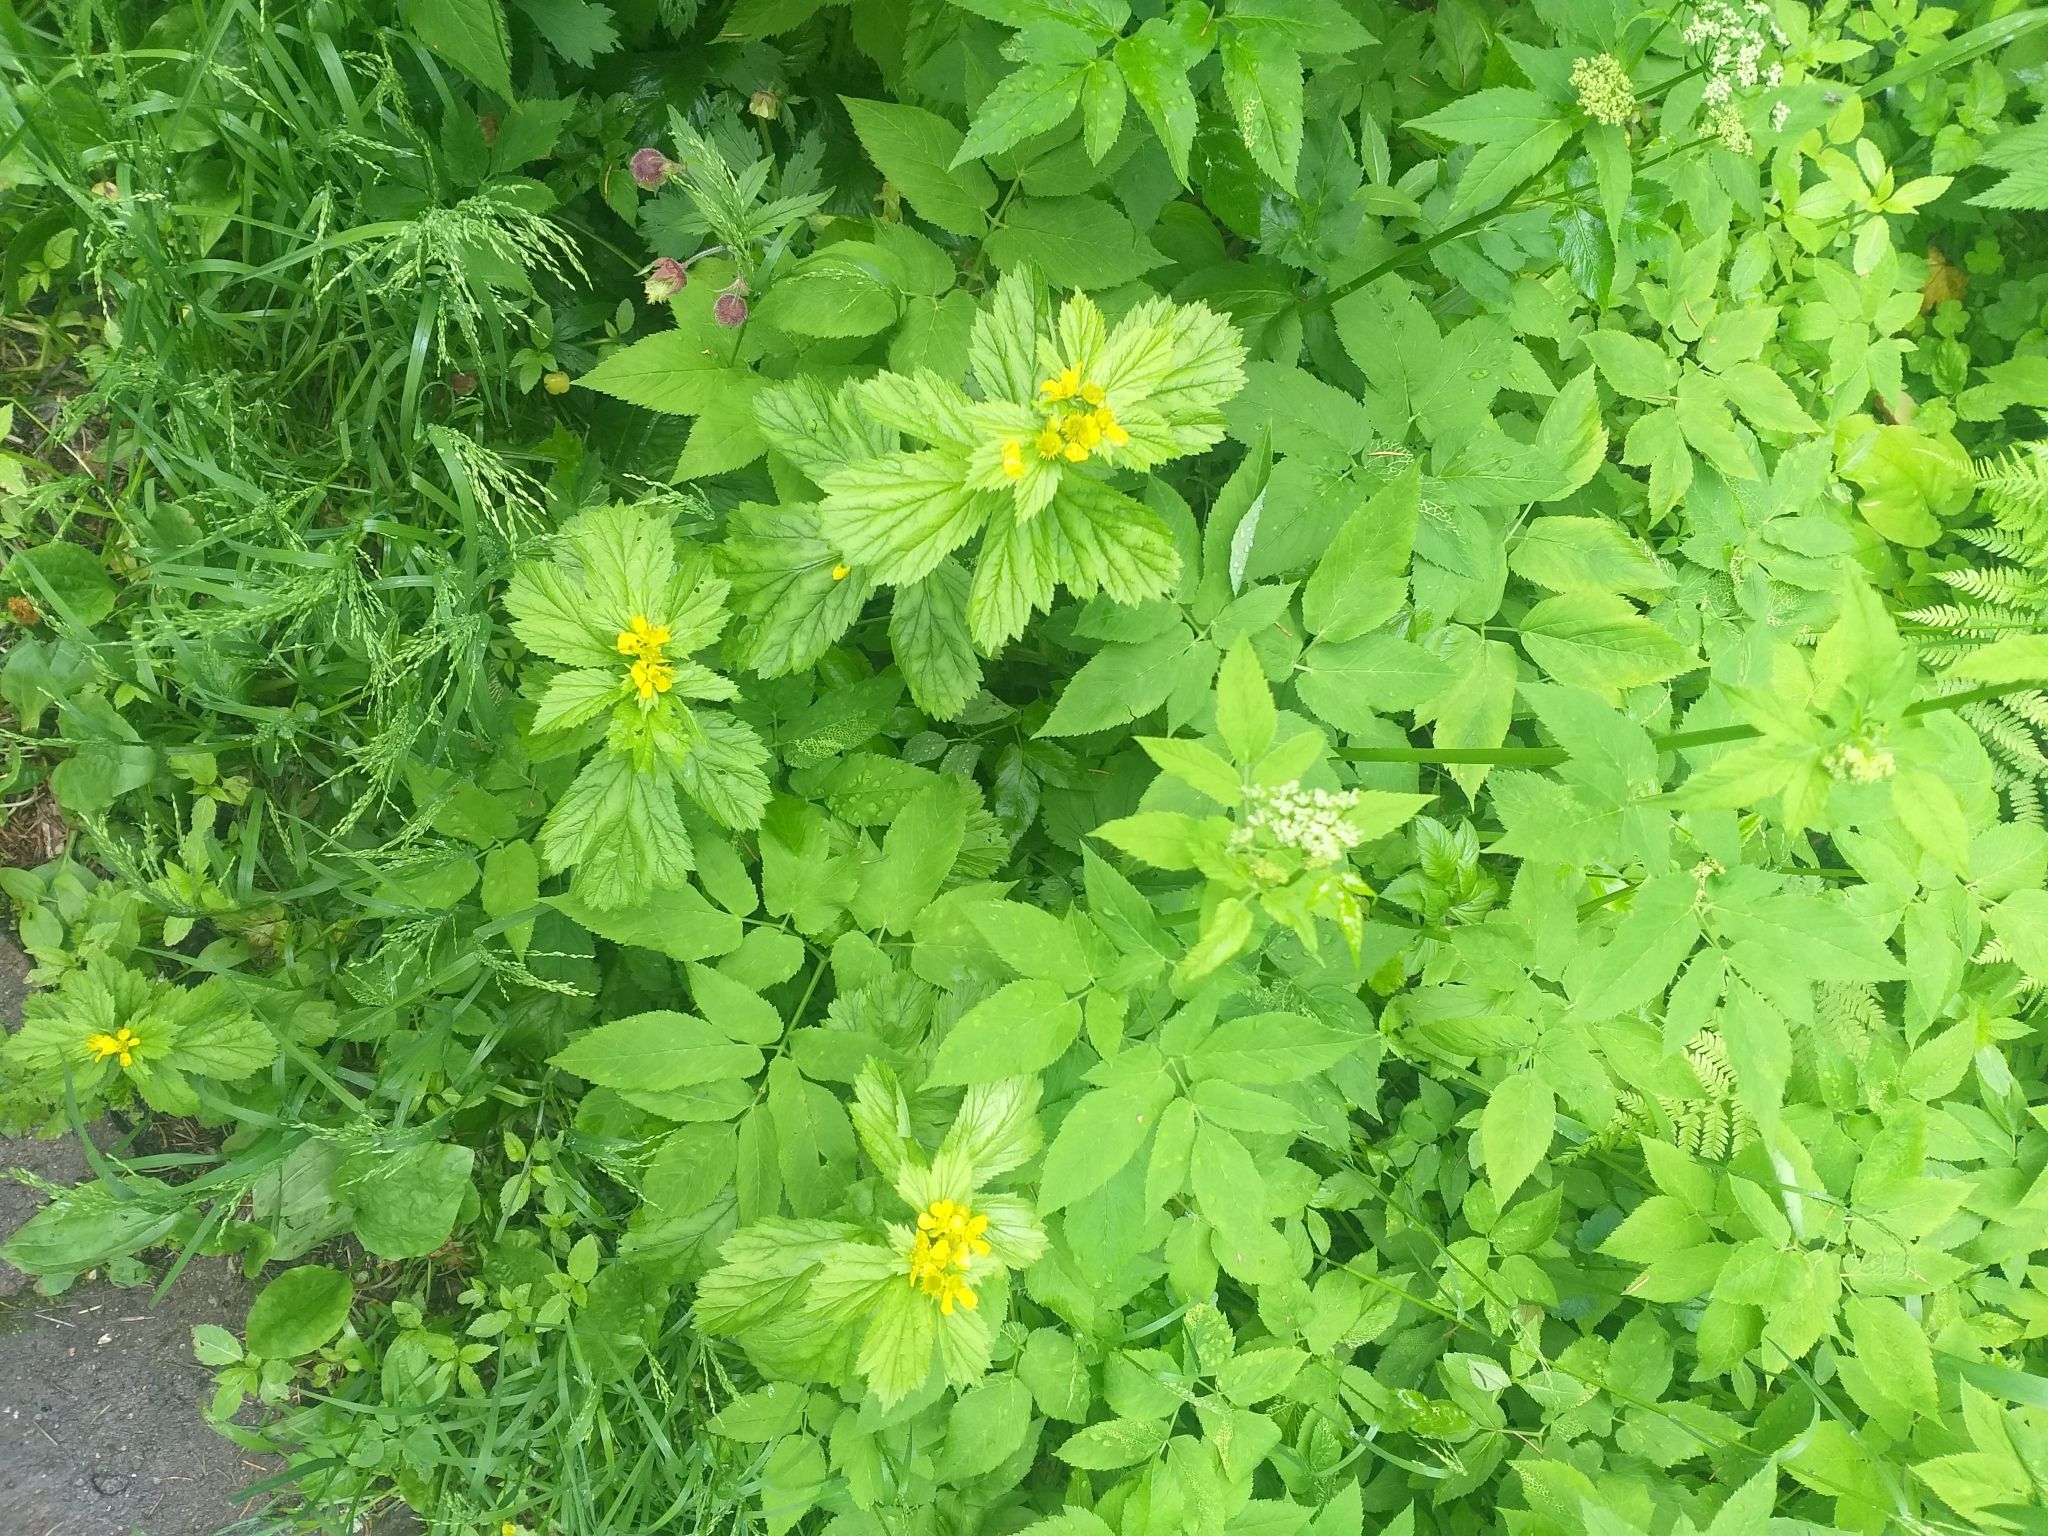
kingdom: Plantae
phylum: Tracheophyta
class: Magnoliopsida
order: Rosales
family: Rosaceae
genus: Geum
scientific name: Geum macrophyllum
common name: Large-leaved avens
